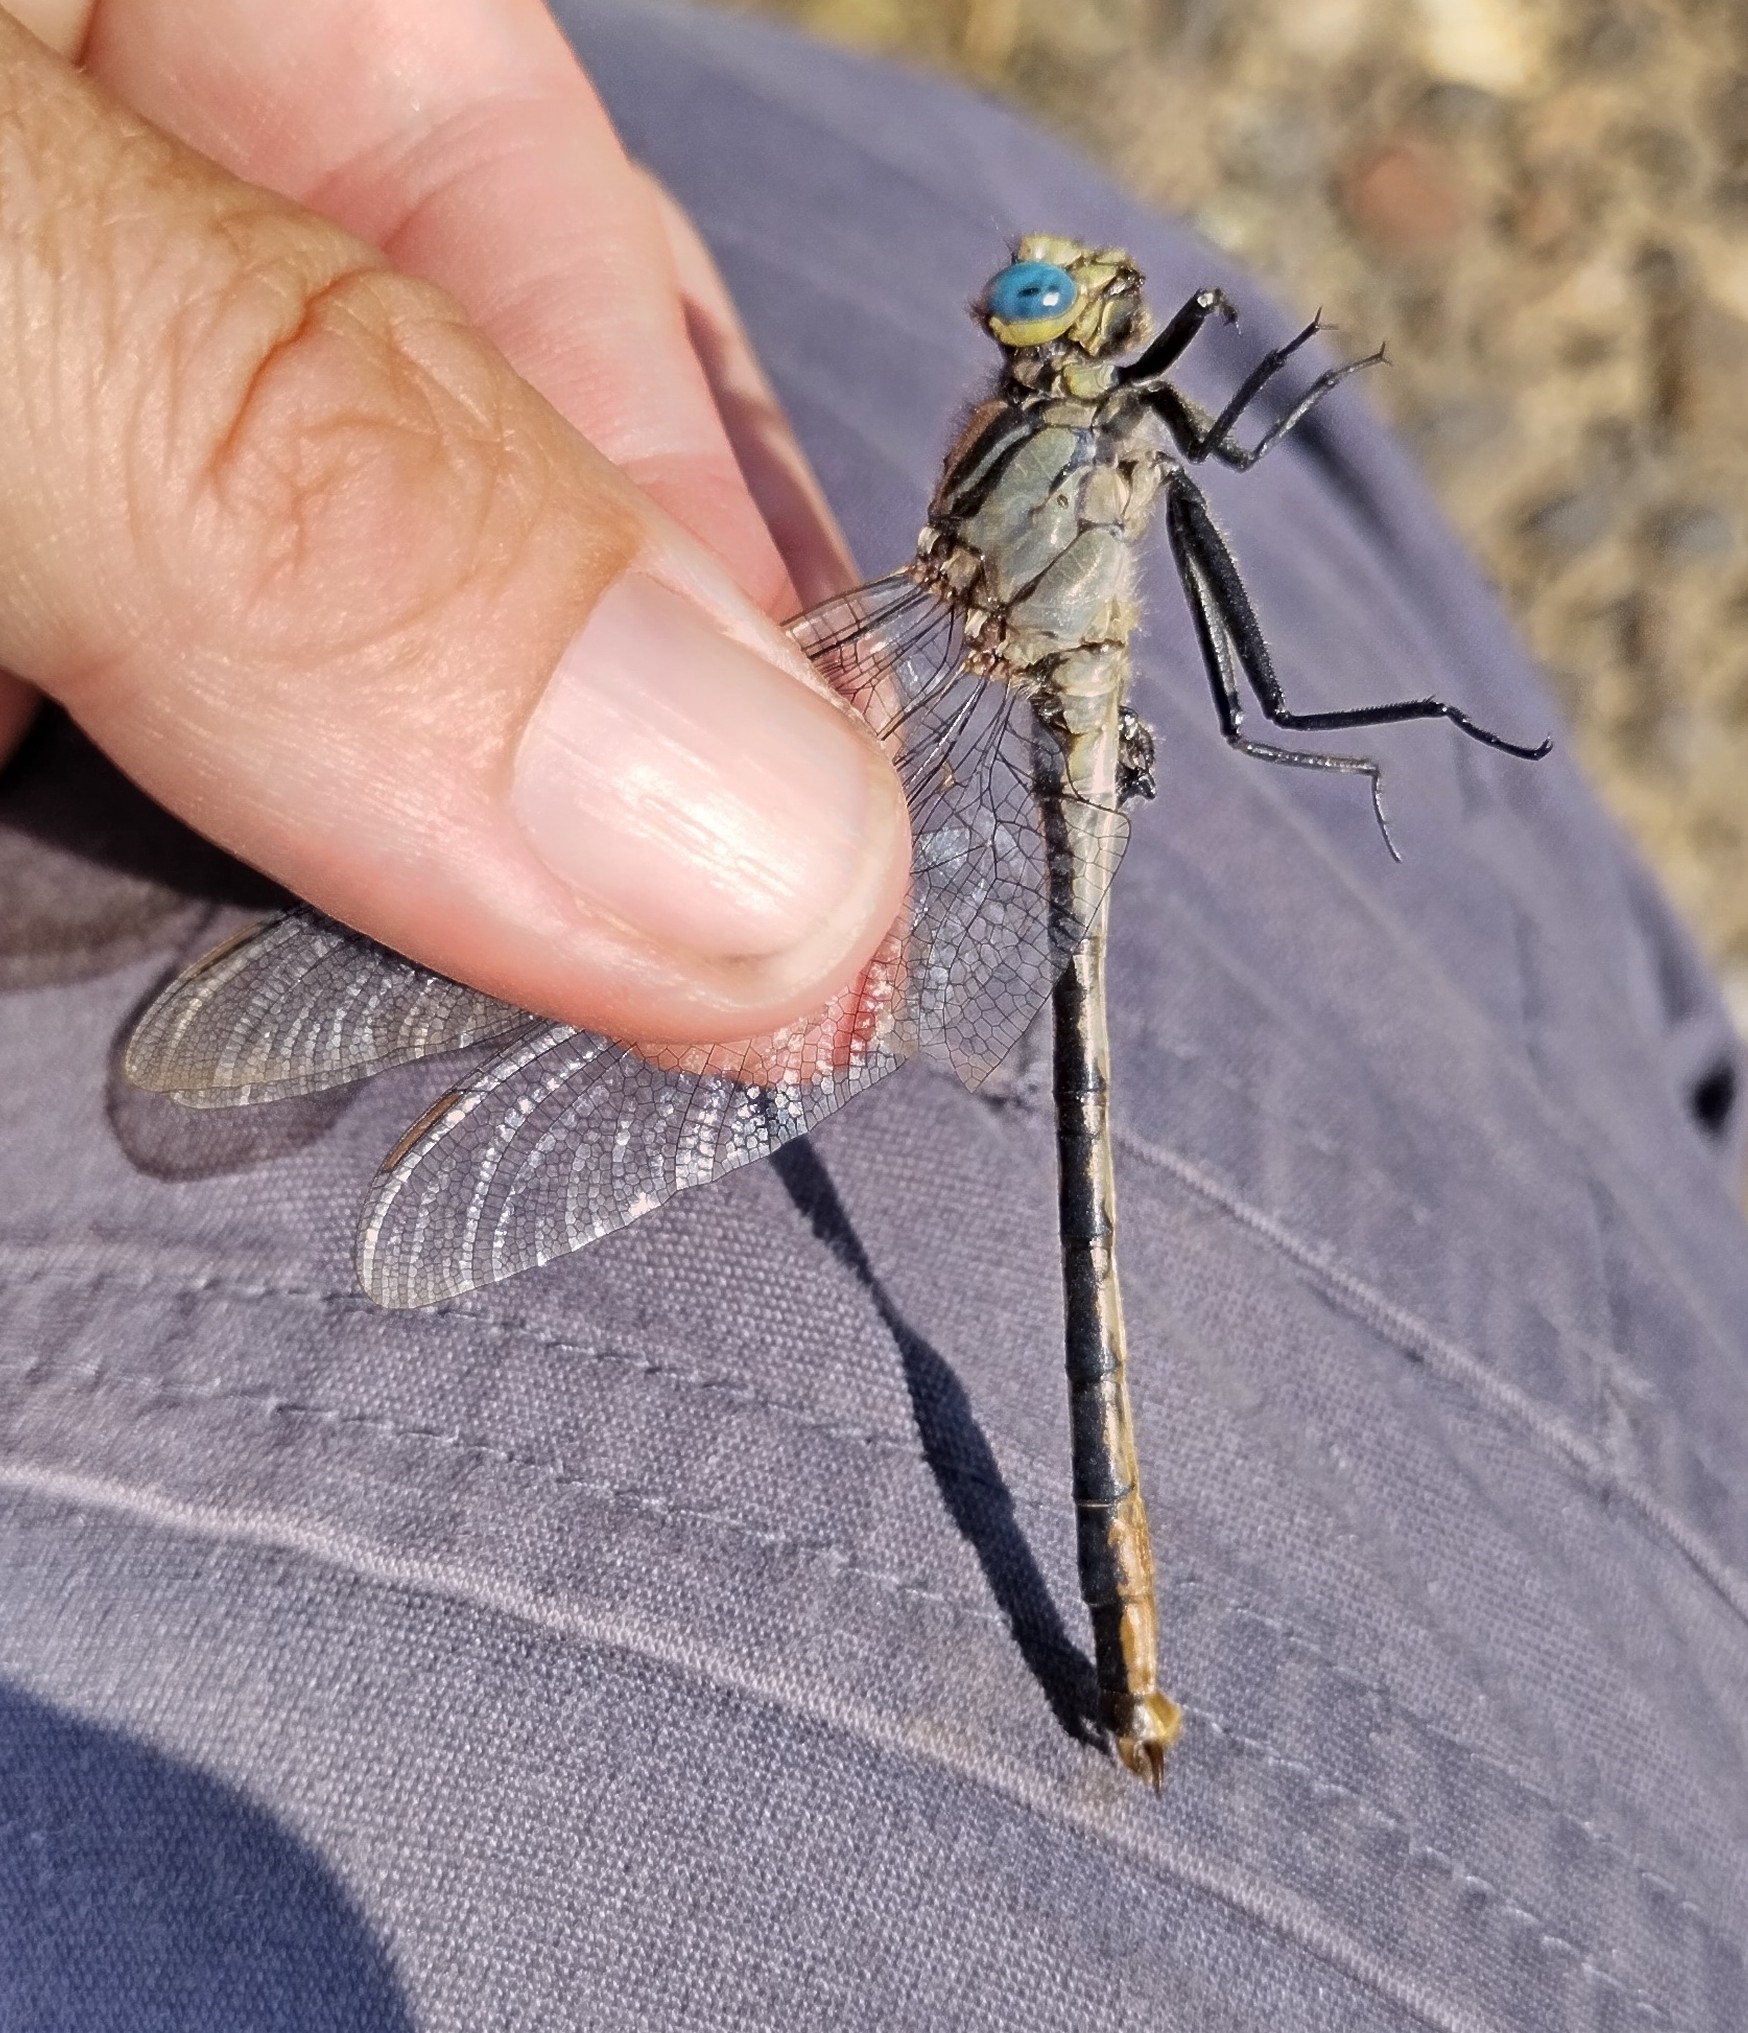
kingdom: Animalia
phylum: Arthropoda
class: Insecta
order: Odonata
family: Gomphidae
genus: Arigomphus
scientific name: Arigomphus furcifer
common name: Lilypad clubtail
